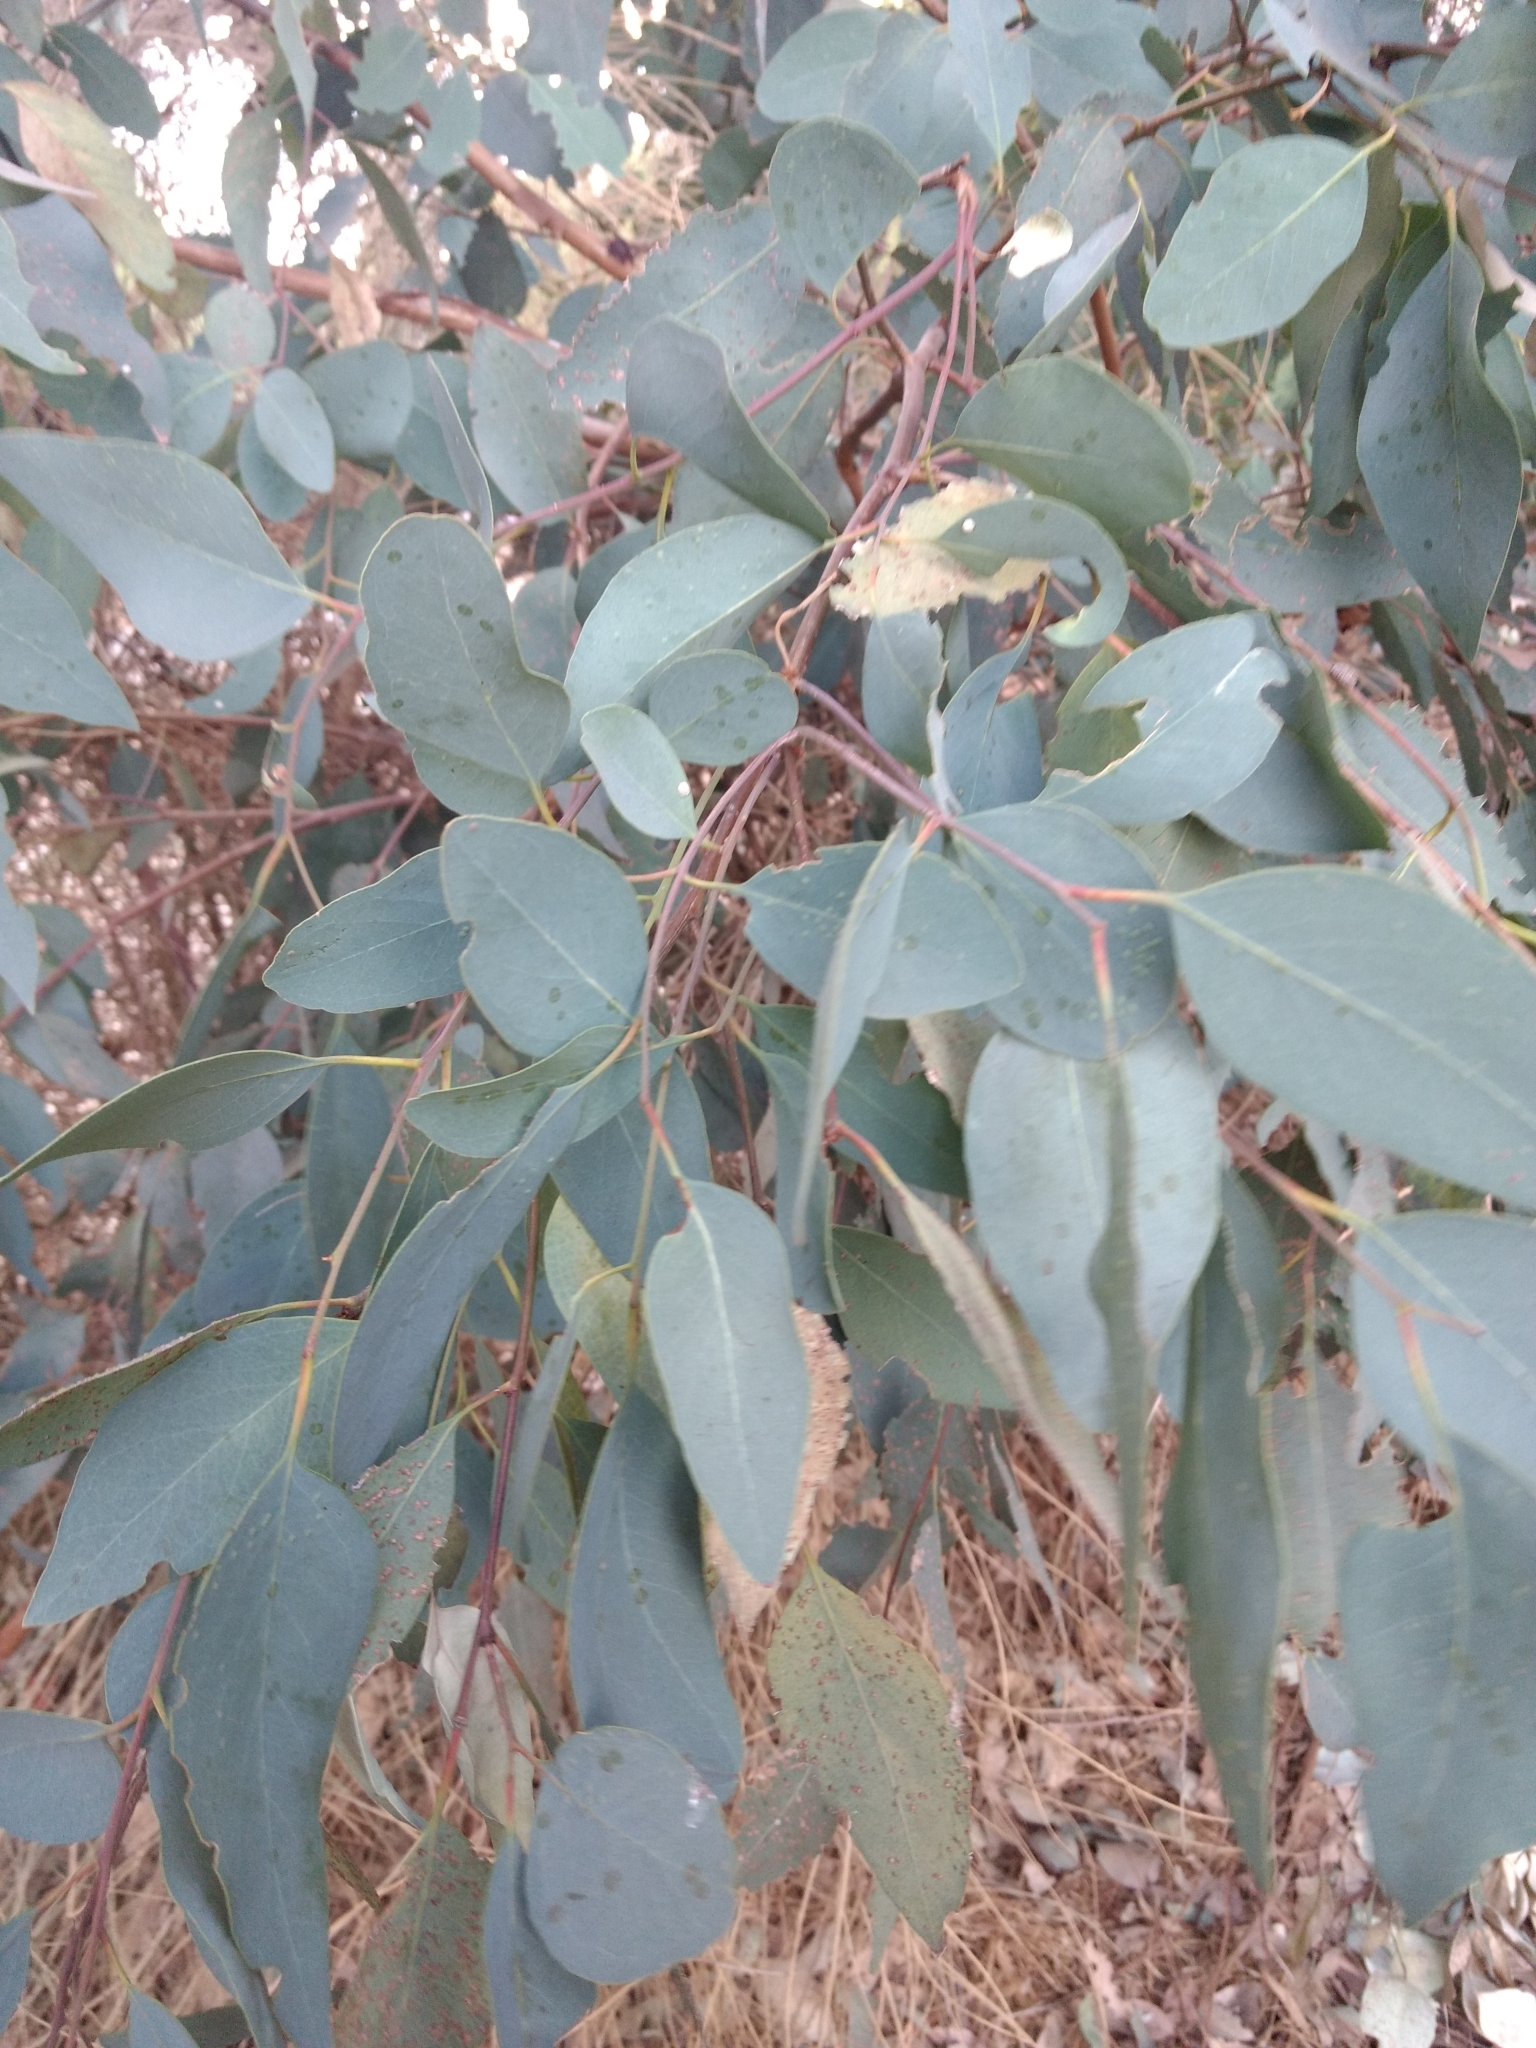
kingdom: Animalia
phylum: Arthropoda
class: Insecta
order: Hymenoptera
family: Eulophidae
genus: Ophelimus
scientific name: Ophelimus maskelli
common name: Gall wasp
